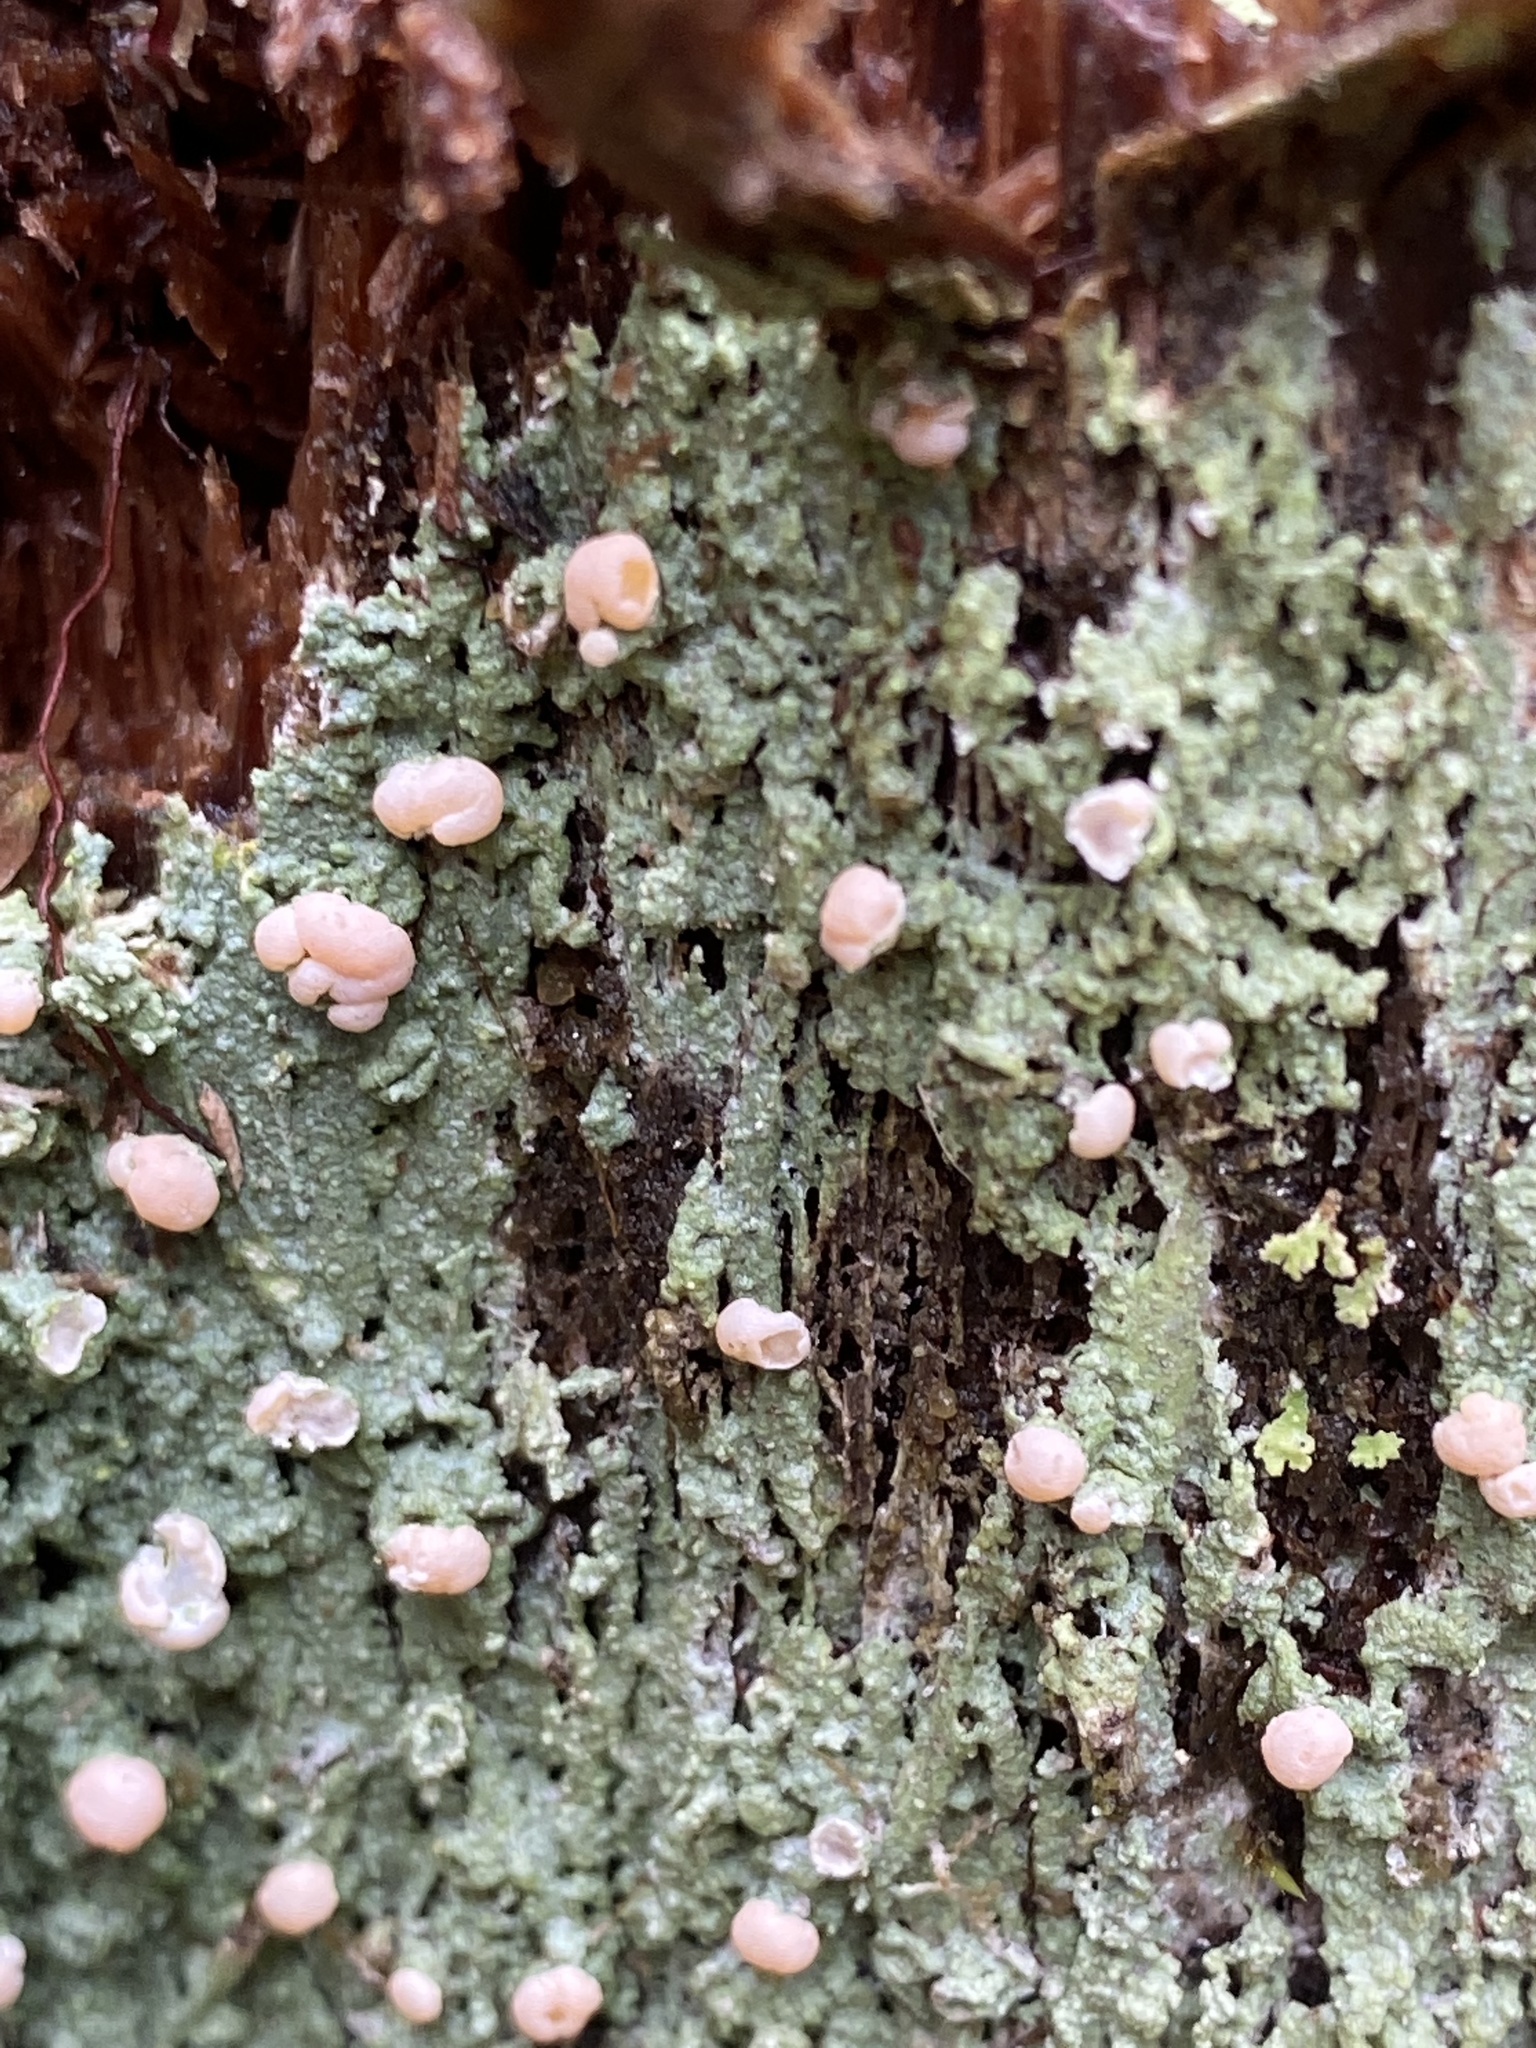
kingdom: Fungi
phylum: Ascomycota
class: Lecanoromycetes
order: Pertusariales
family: Icmadophilaceae
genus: Icmadophila
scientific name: Icmadophila ericetorum
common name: Candy lichen
